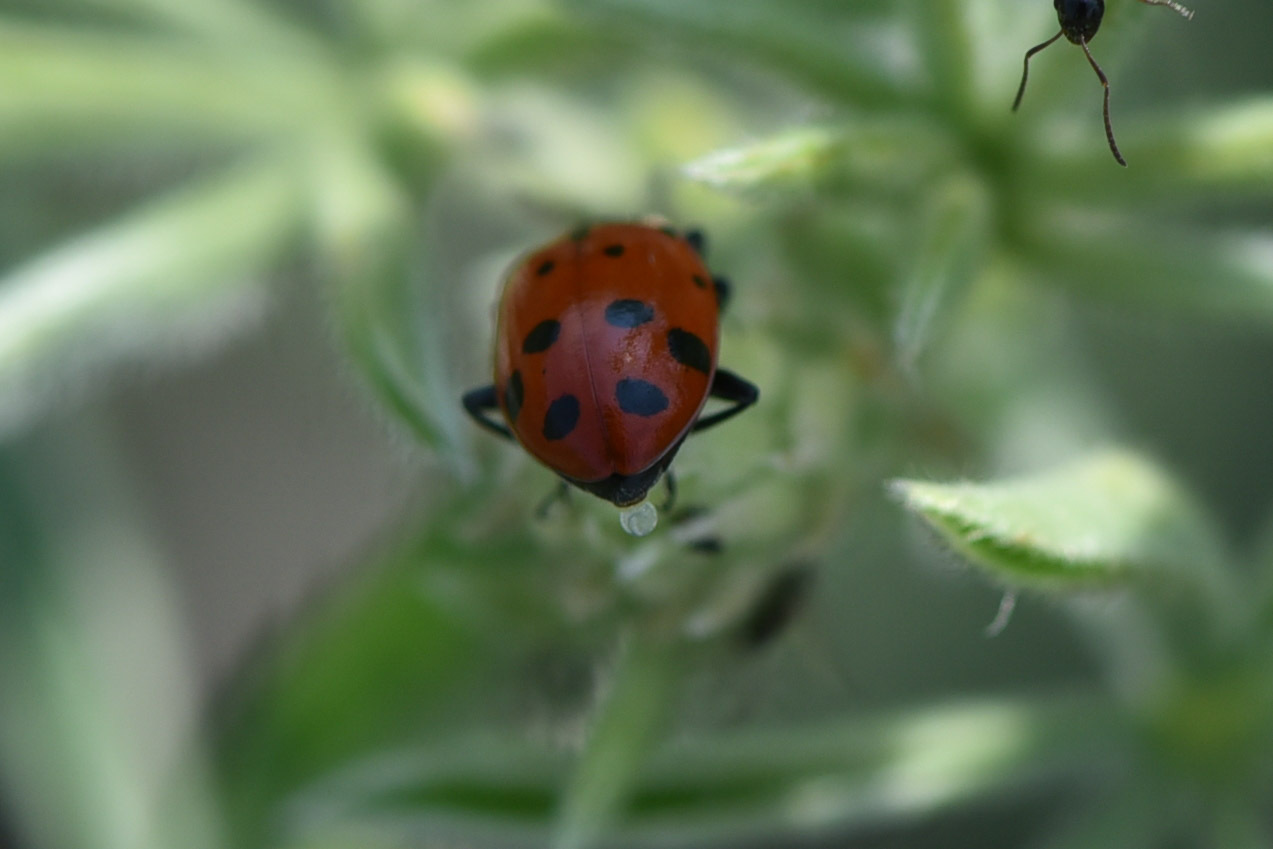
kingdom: Animalia
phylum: Arthropoda
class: Insecta
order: Coleoptera
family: Coccinellidae
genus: Hippodamia
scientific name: Hippodamia convergens
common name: Convergent lady beetle
